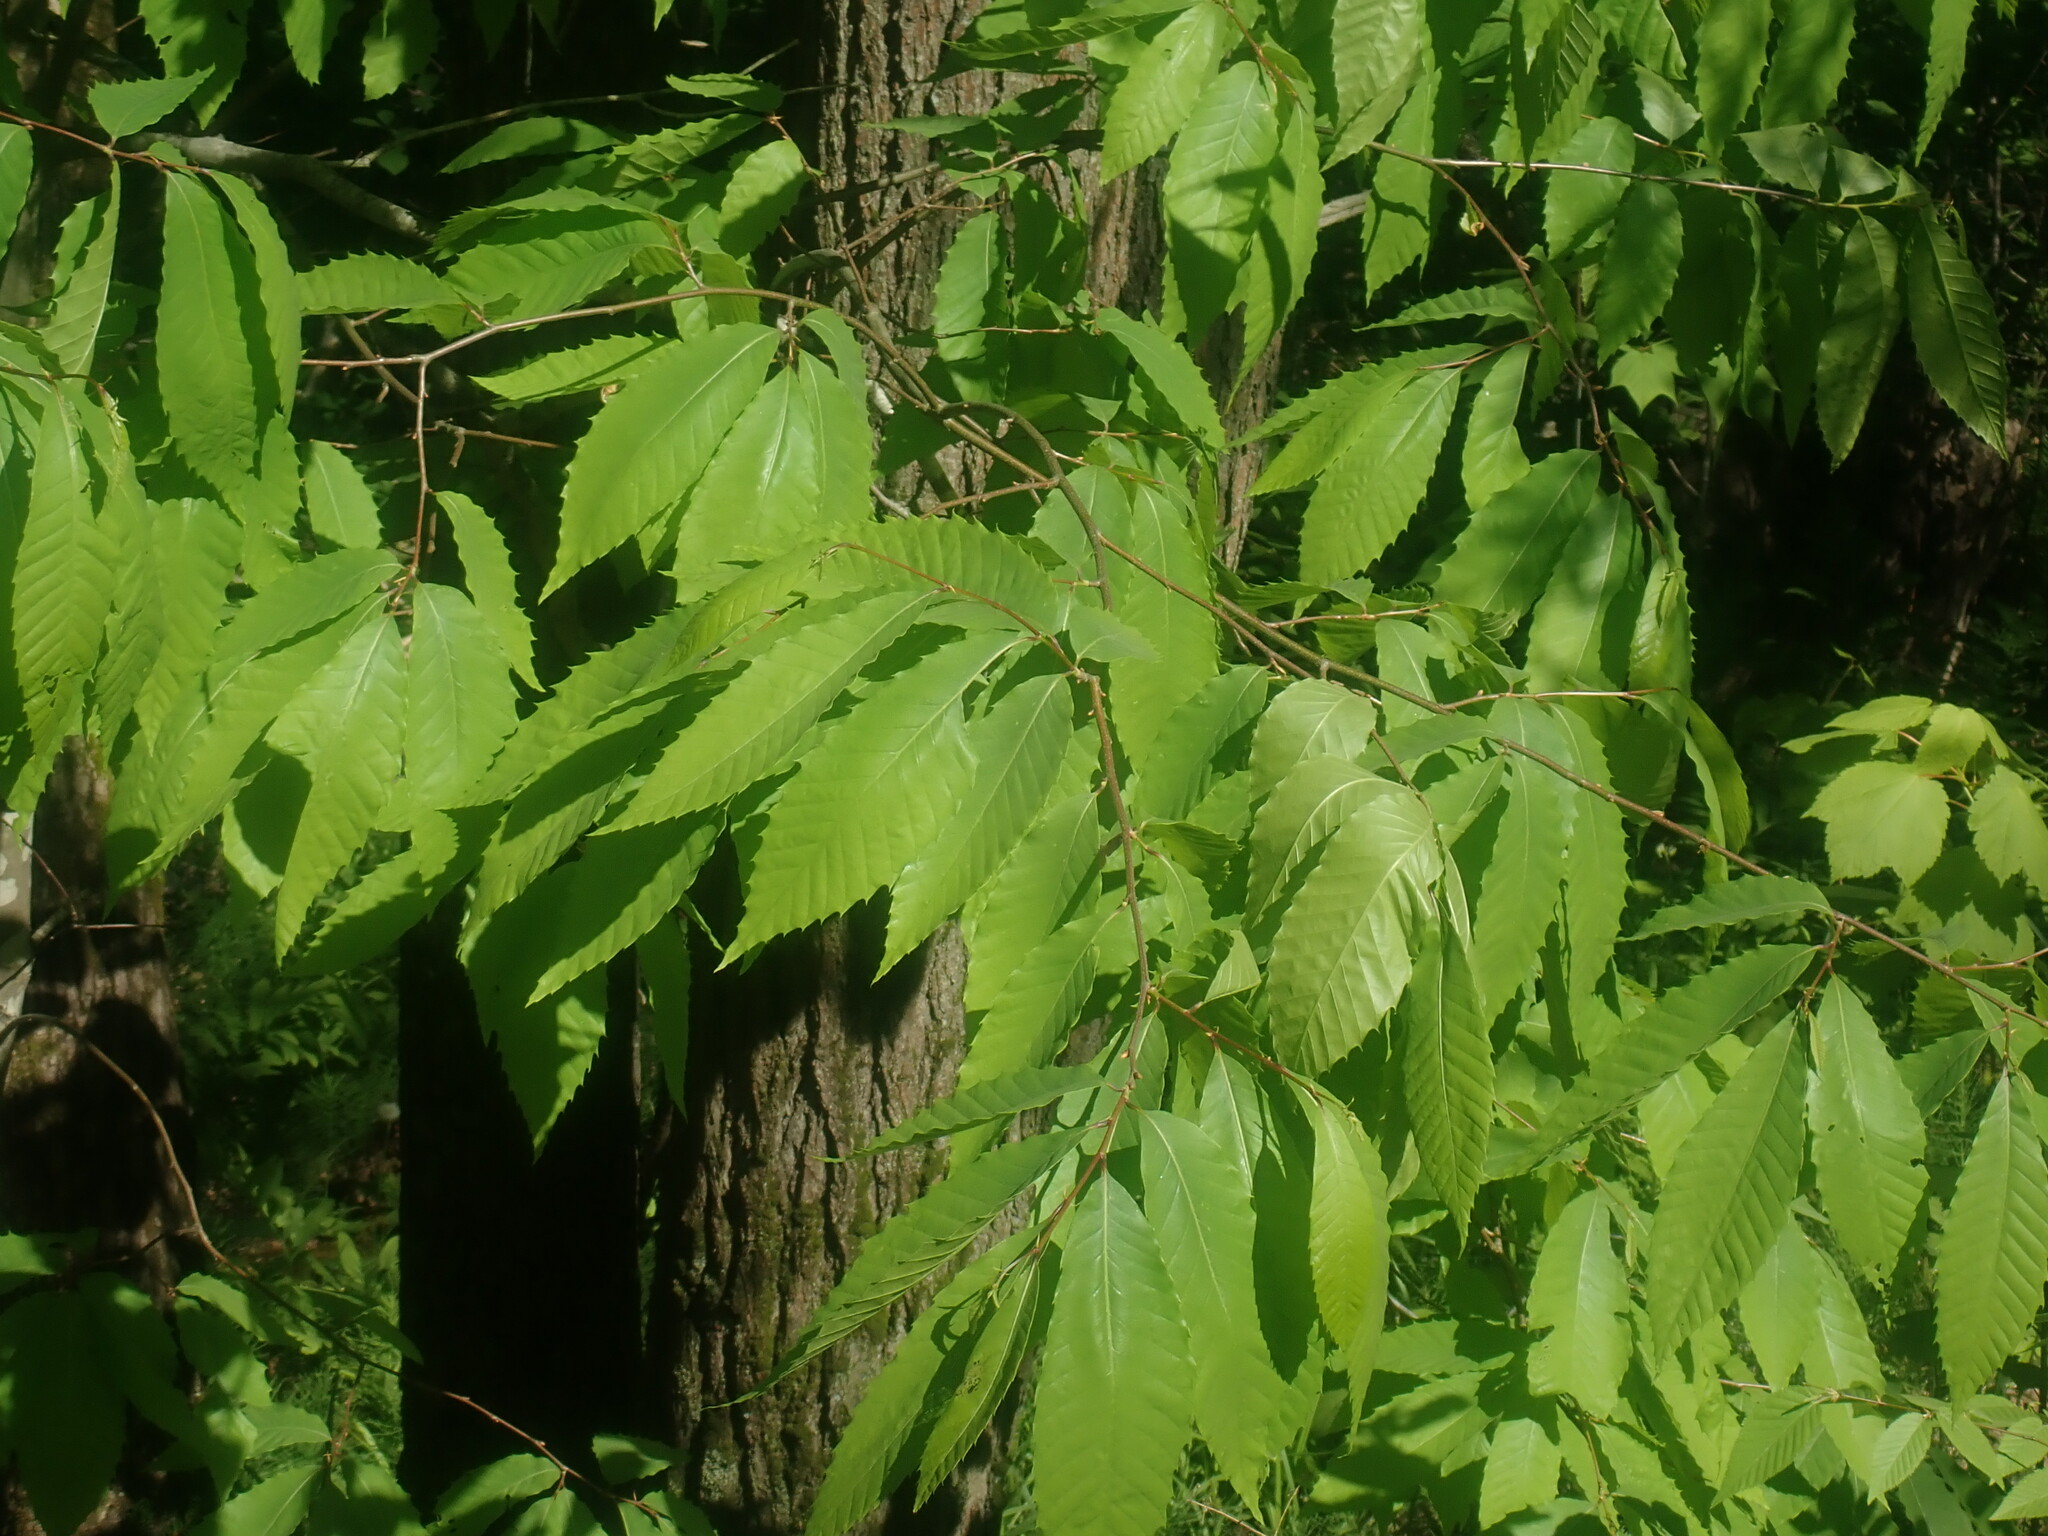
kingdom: Plantae
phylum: Tracheophyta
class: Magnoliopsida
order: Fagales
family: Fagaceae
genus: Castanea
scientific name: Castanea dentata
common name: American chestnut
